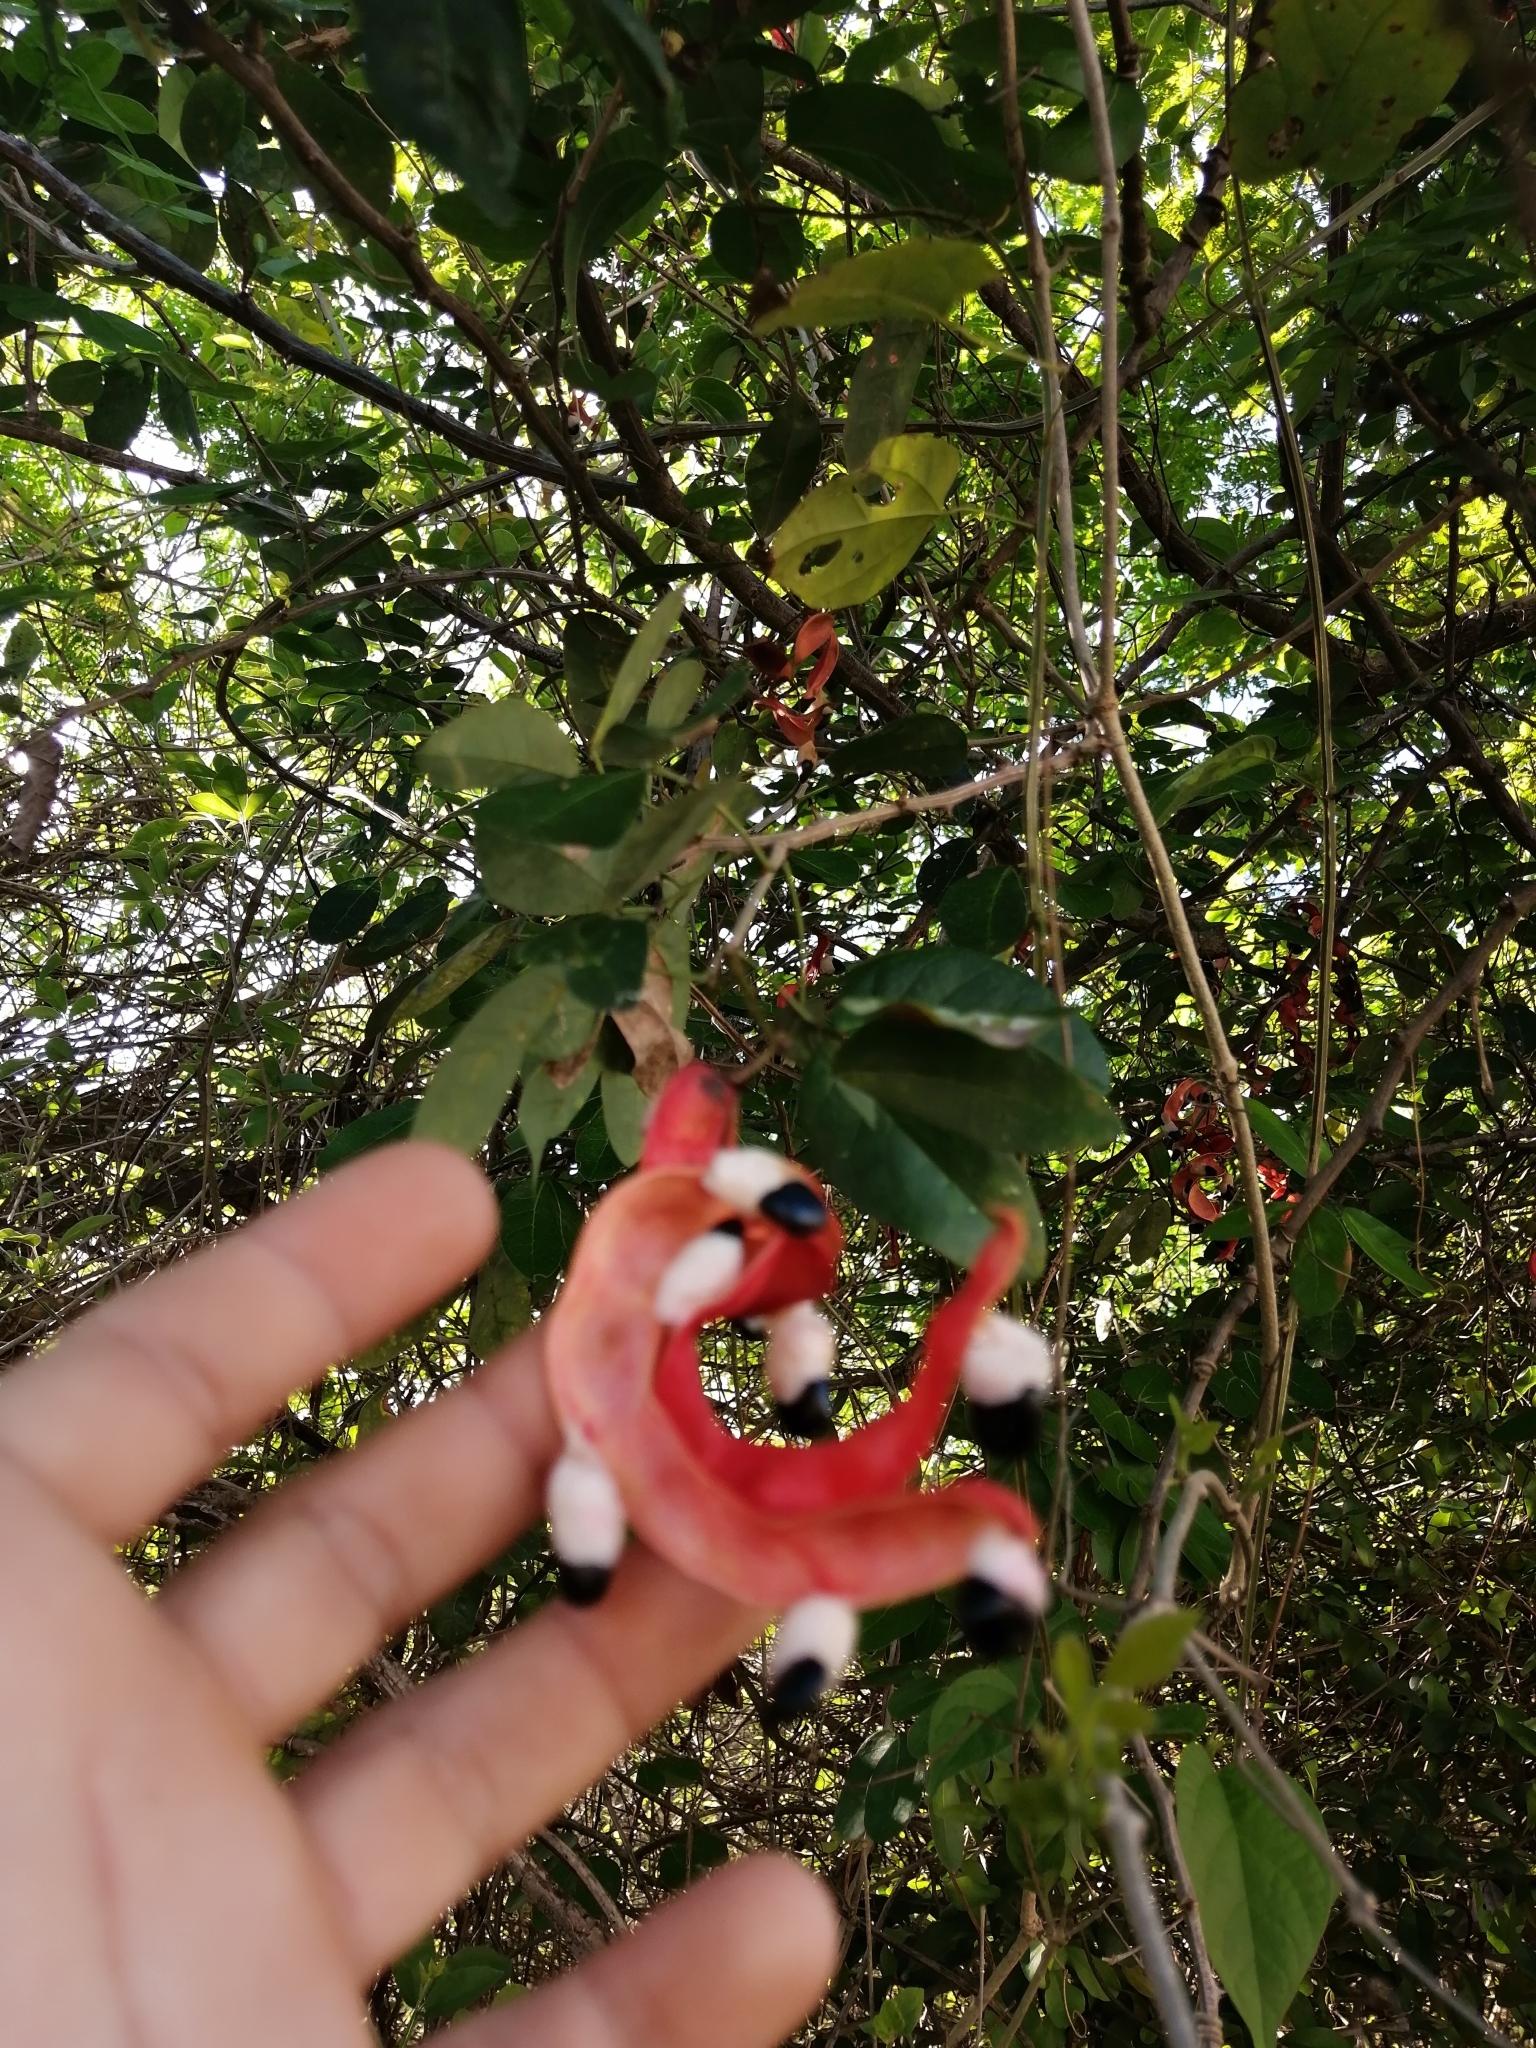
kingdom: Plantae
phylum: Tracheophyta
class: Magnoliopsida
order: Fabales
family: Fabaceae
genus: Pithecellobium
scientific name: Pithecellobium dulce
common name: Monkeypod
